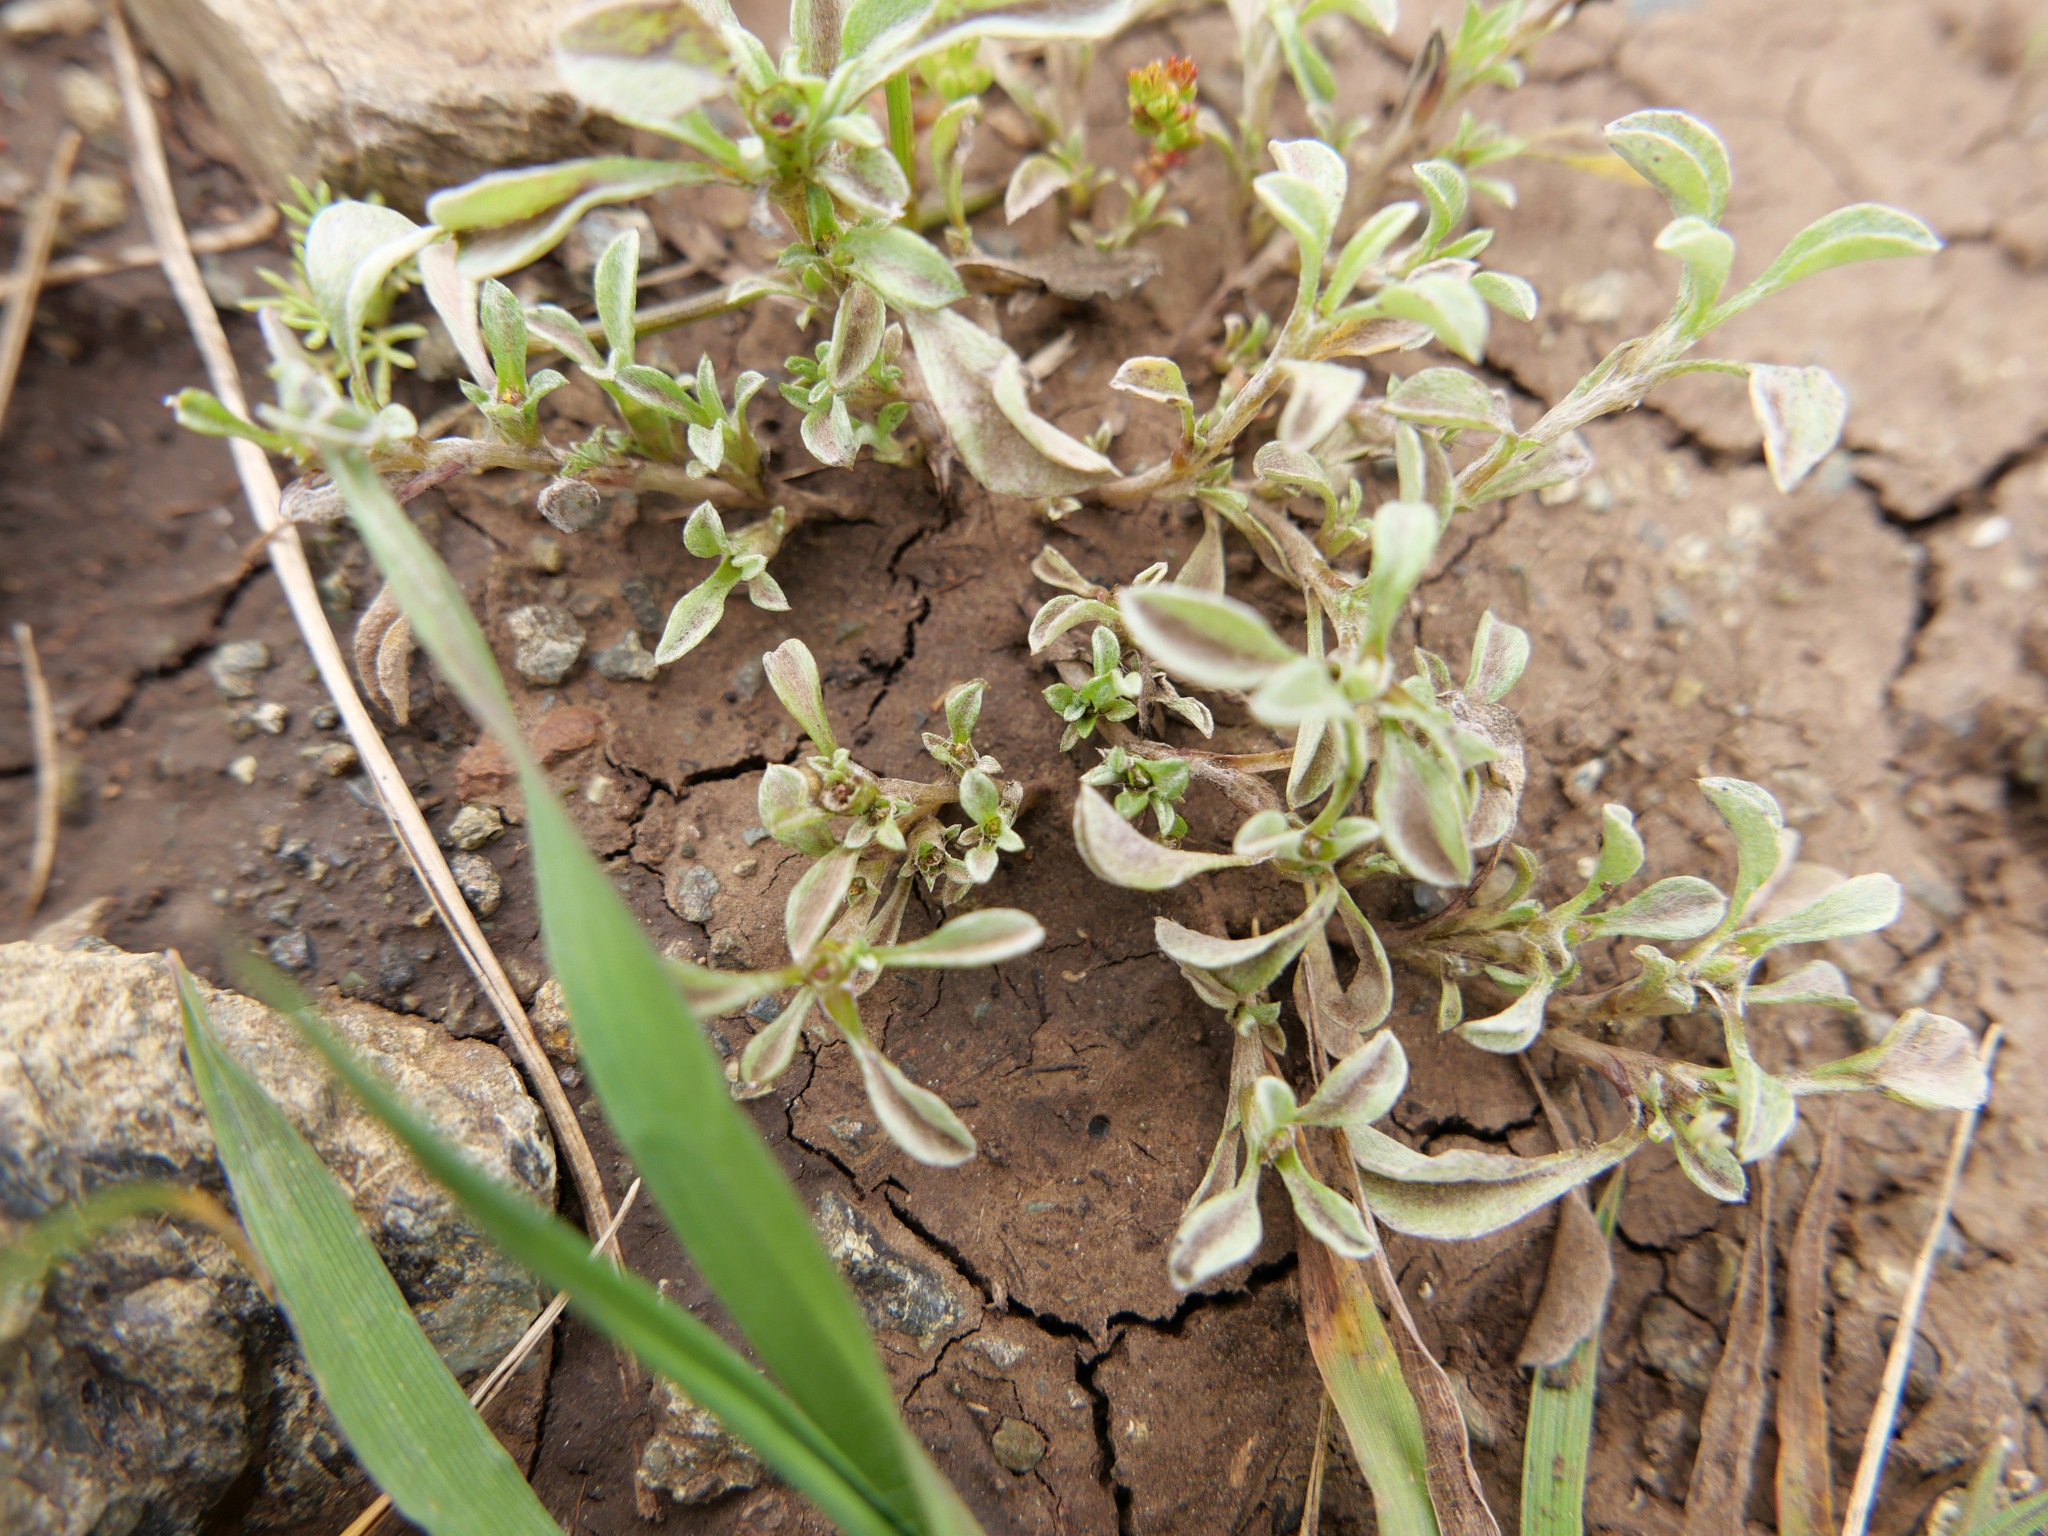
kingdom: Plantae
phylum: Tracheophyta
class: Magnoliopsida
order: Asterales
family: Asteraceae
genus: Hesperevax
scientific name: Hesperevax sparsiflora
